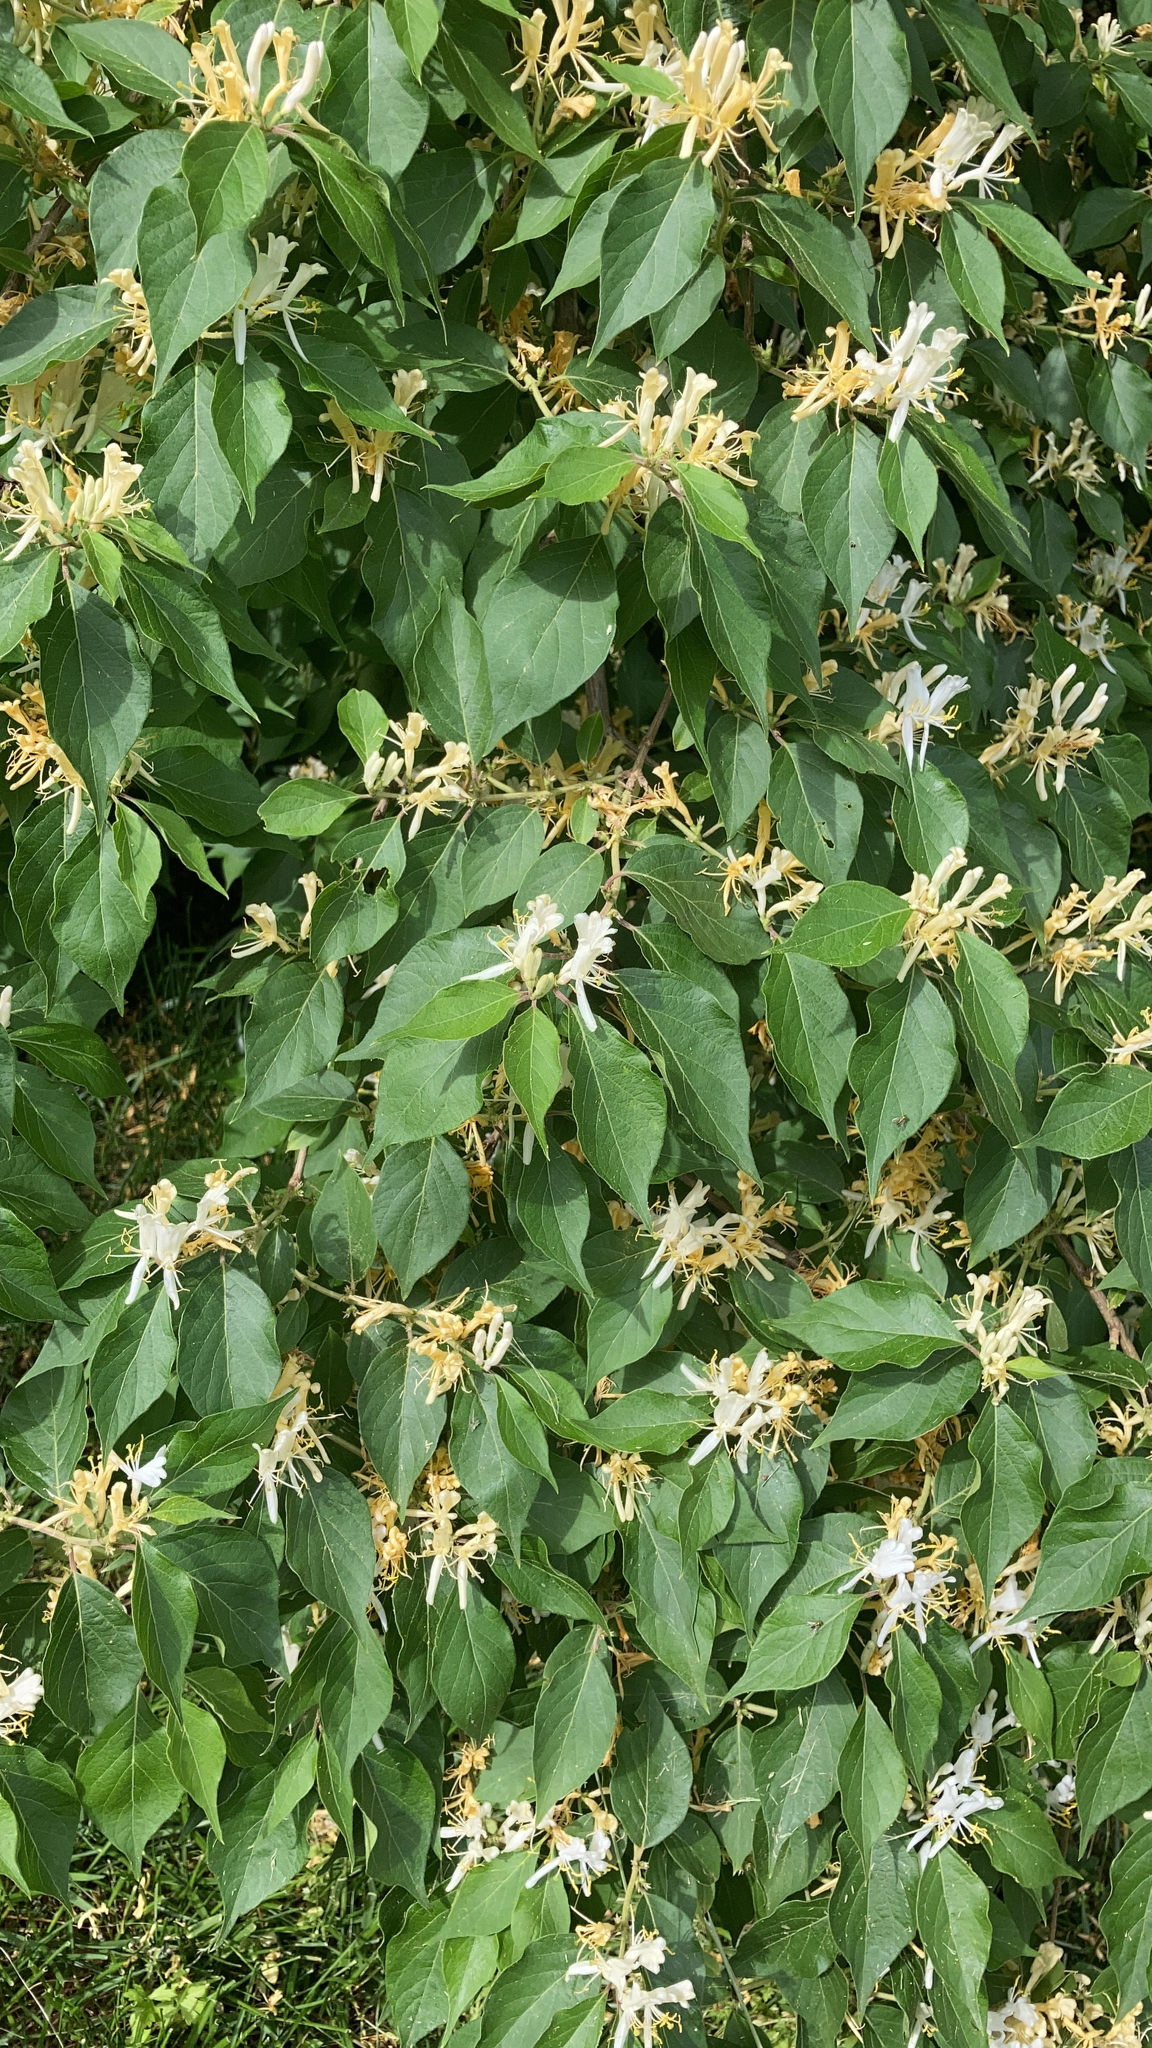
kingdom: Plantae
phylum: Tracheophyta
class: Magnoliopsida
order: Dipsacales
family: Caprifoliaceae
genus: Lonicera
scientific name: Lonicera maackii
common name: Amur honeysuckle
